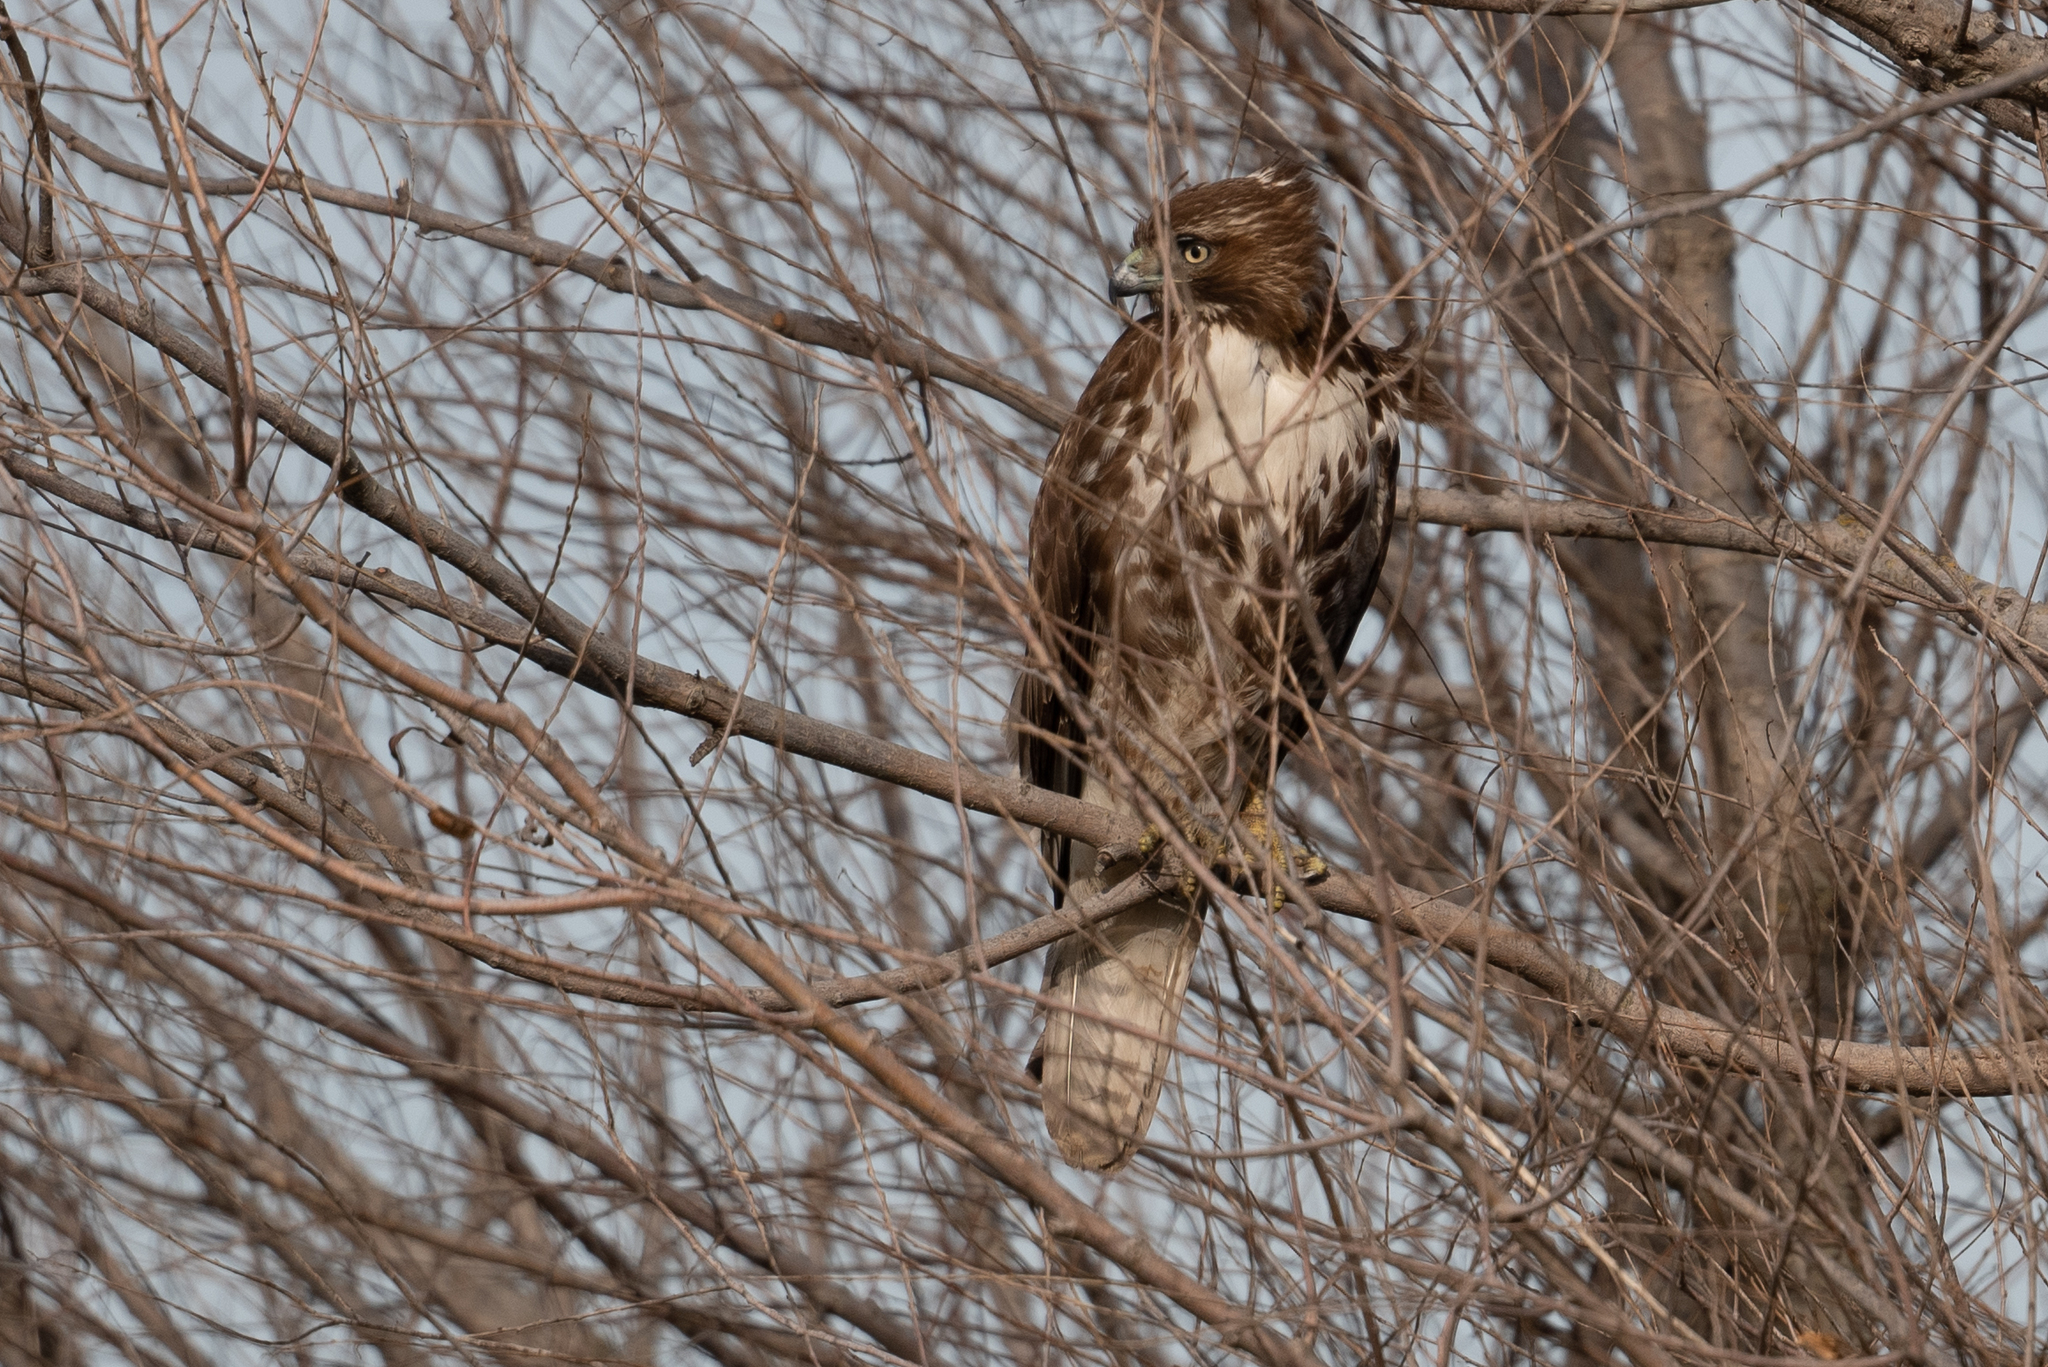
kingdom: Animalia
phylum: Chordata
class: Aves
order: Accipitriformes
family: Accipitridae
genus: Buteo
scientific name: Buteo jamaicensis
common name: Red-tailed hawk
